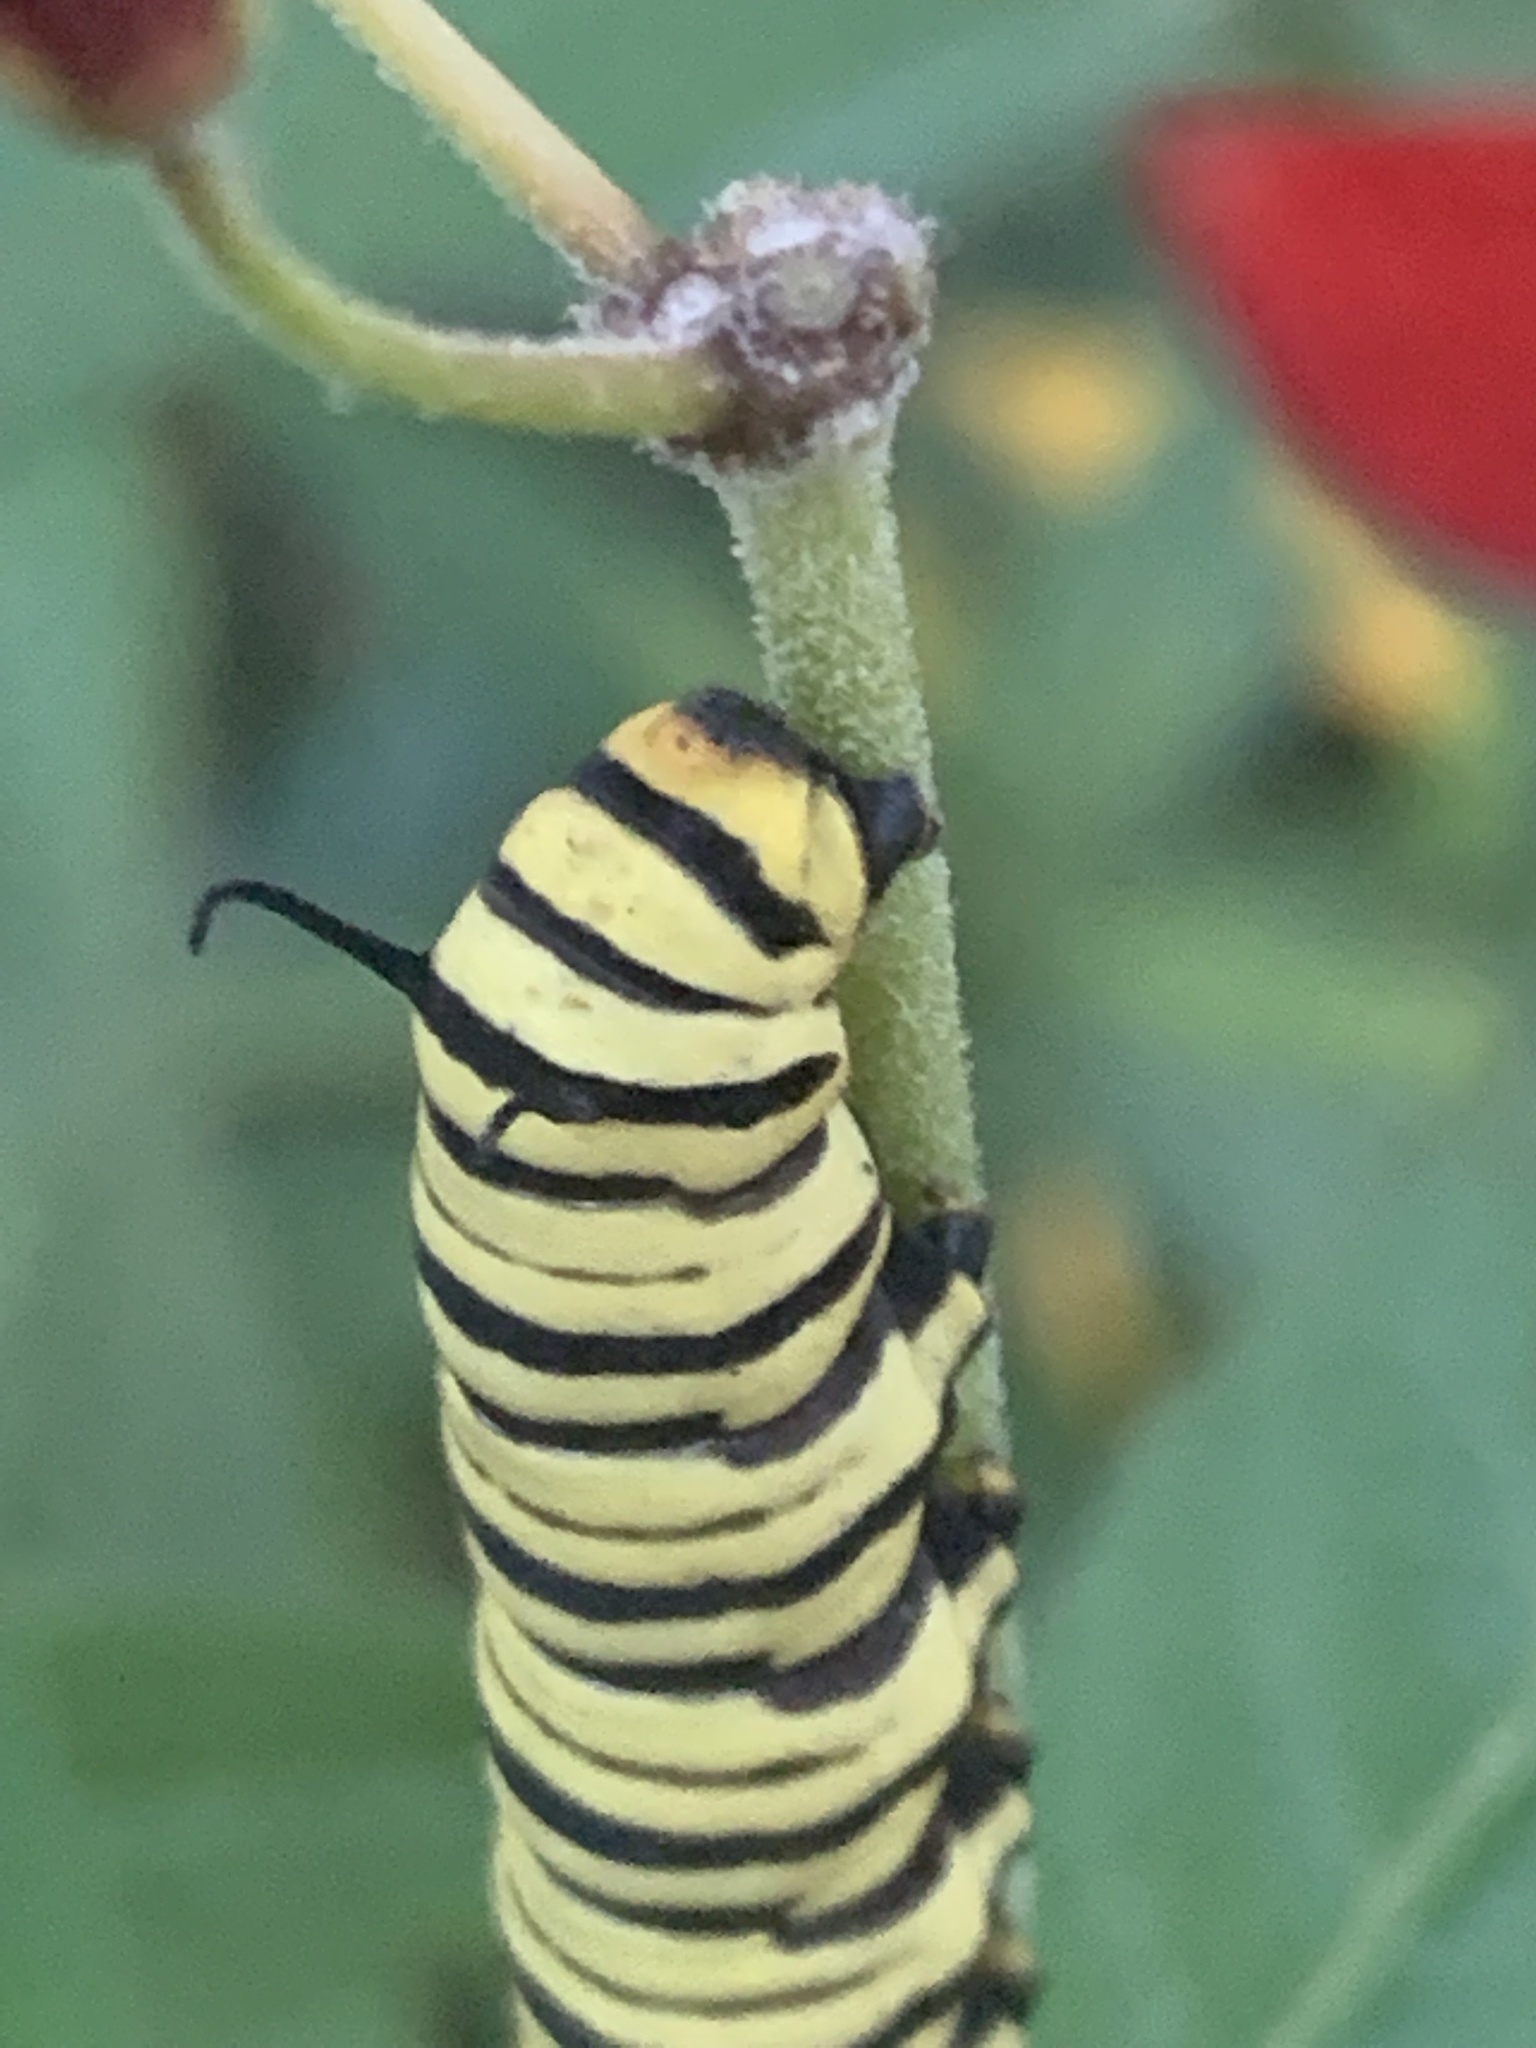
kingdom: Animalia
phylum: Arthropoda
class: Insecta
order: Lepidoptera
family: Nymphalidae
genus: Danaus
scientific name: Danaus erippus
